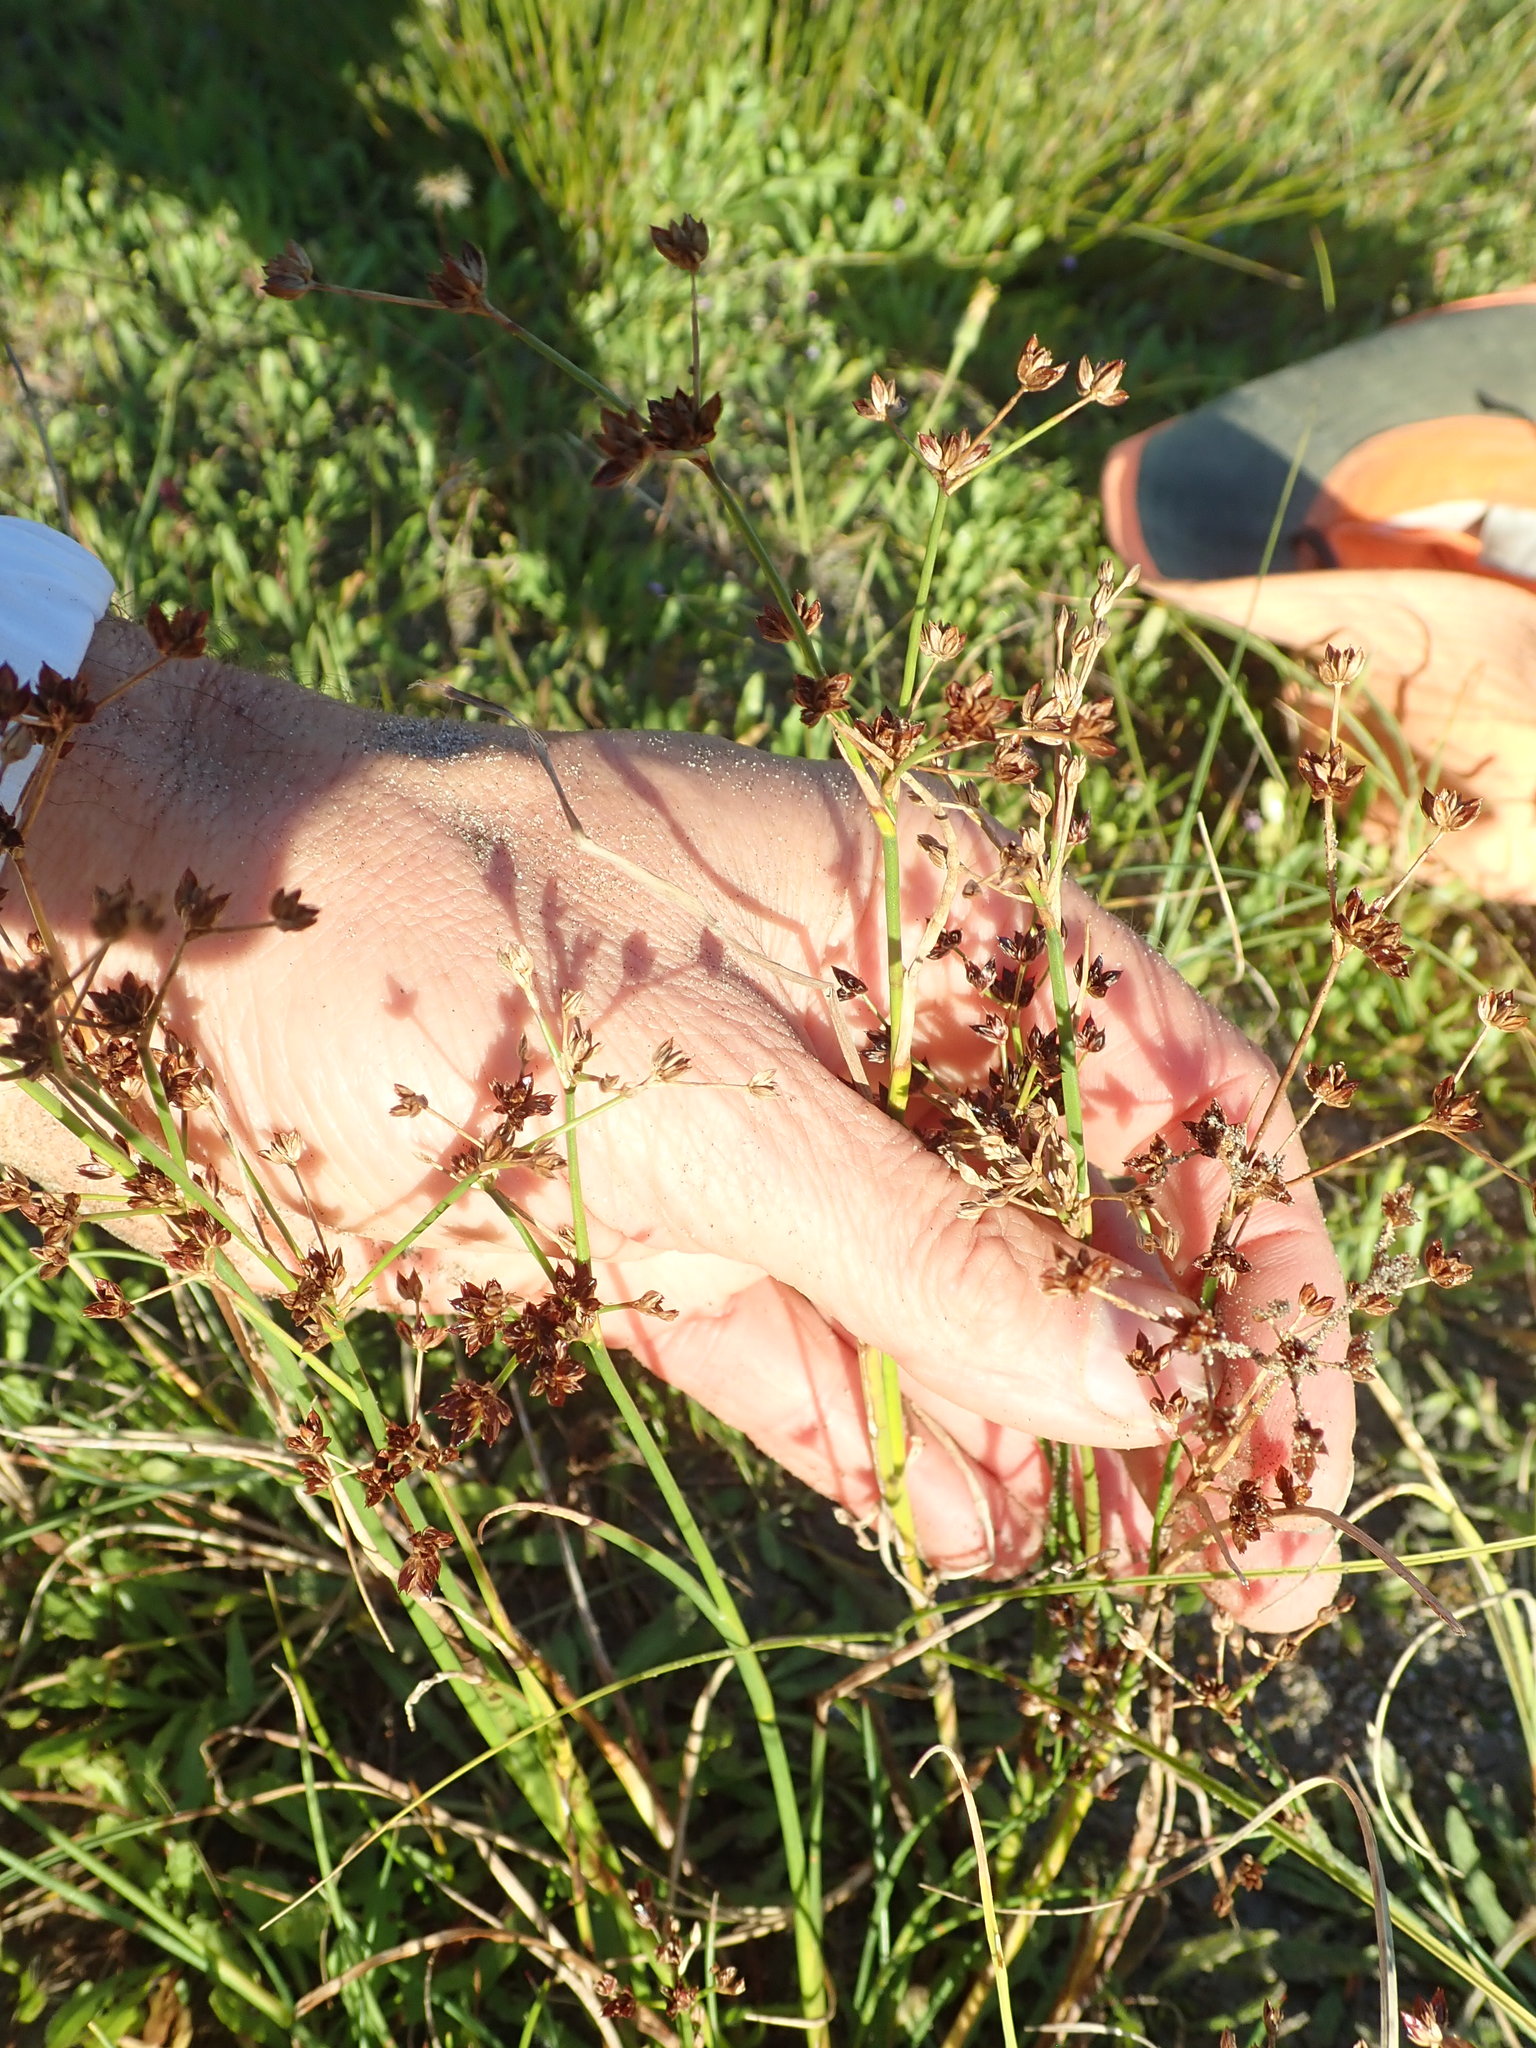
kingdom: Plantae
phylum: Tracheophyta
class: Liliopsida
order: Poales
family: Juncaceae
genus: Juncus
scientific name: Juncus articulatus
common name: Jointed rush
